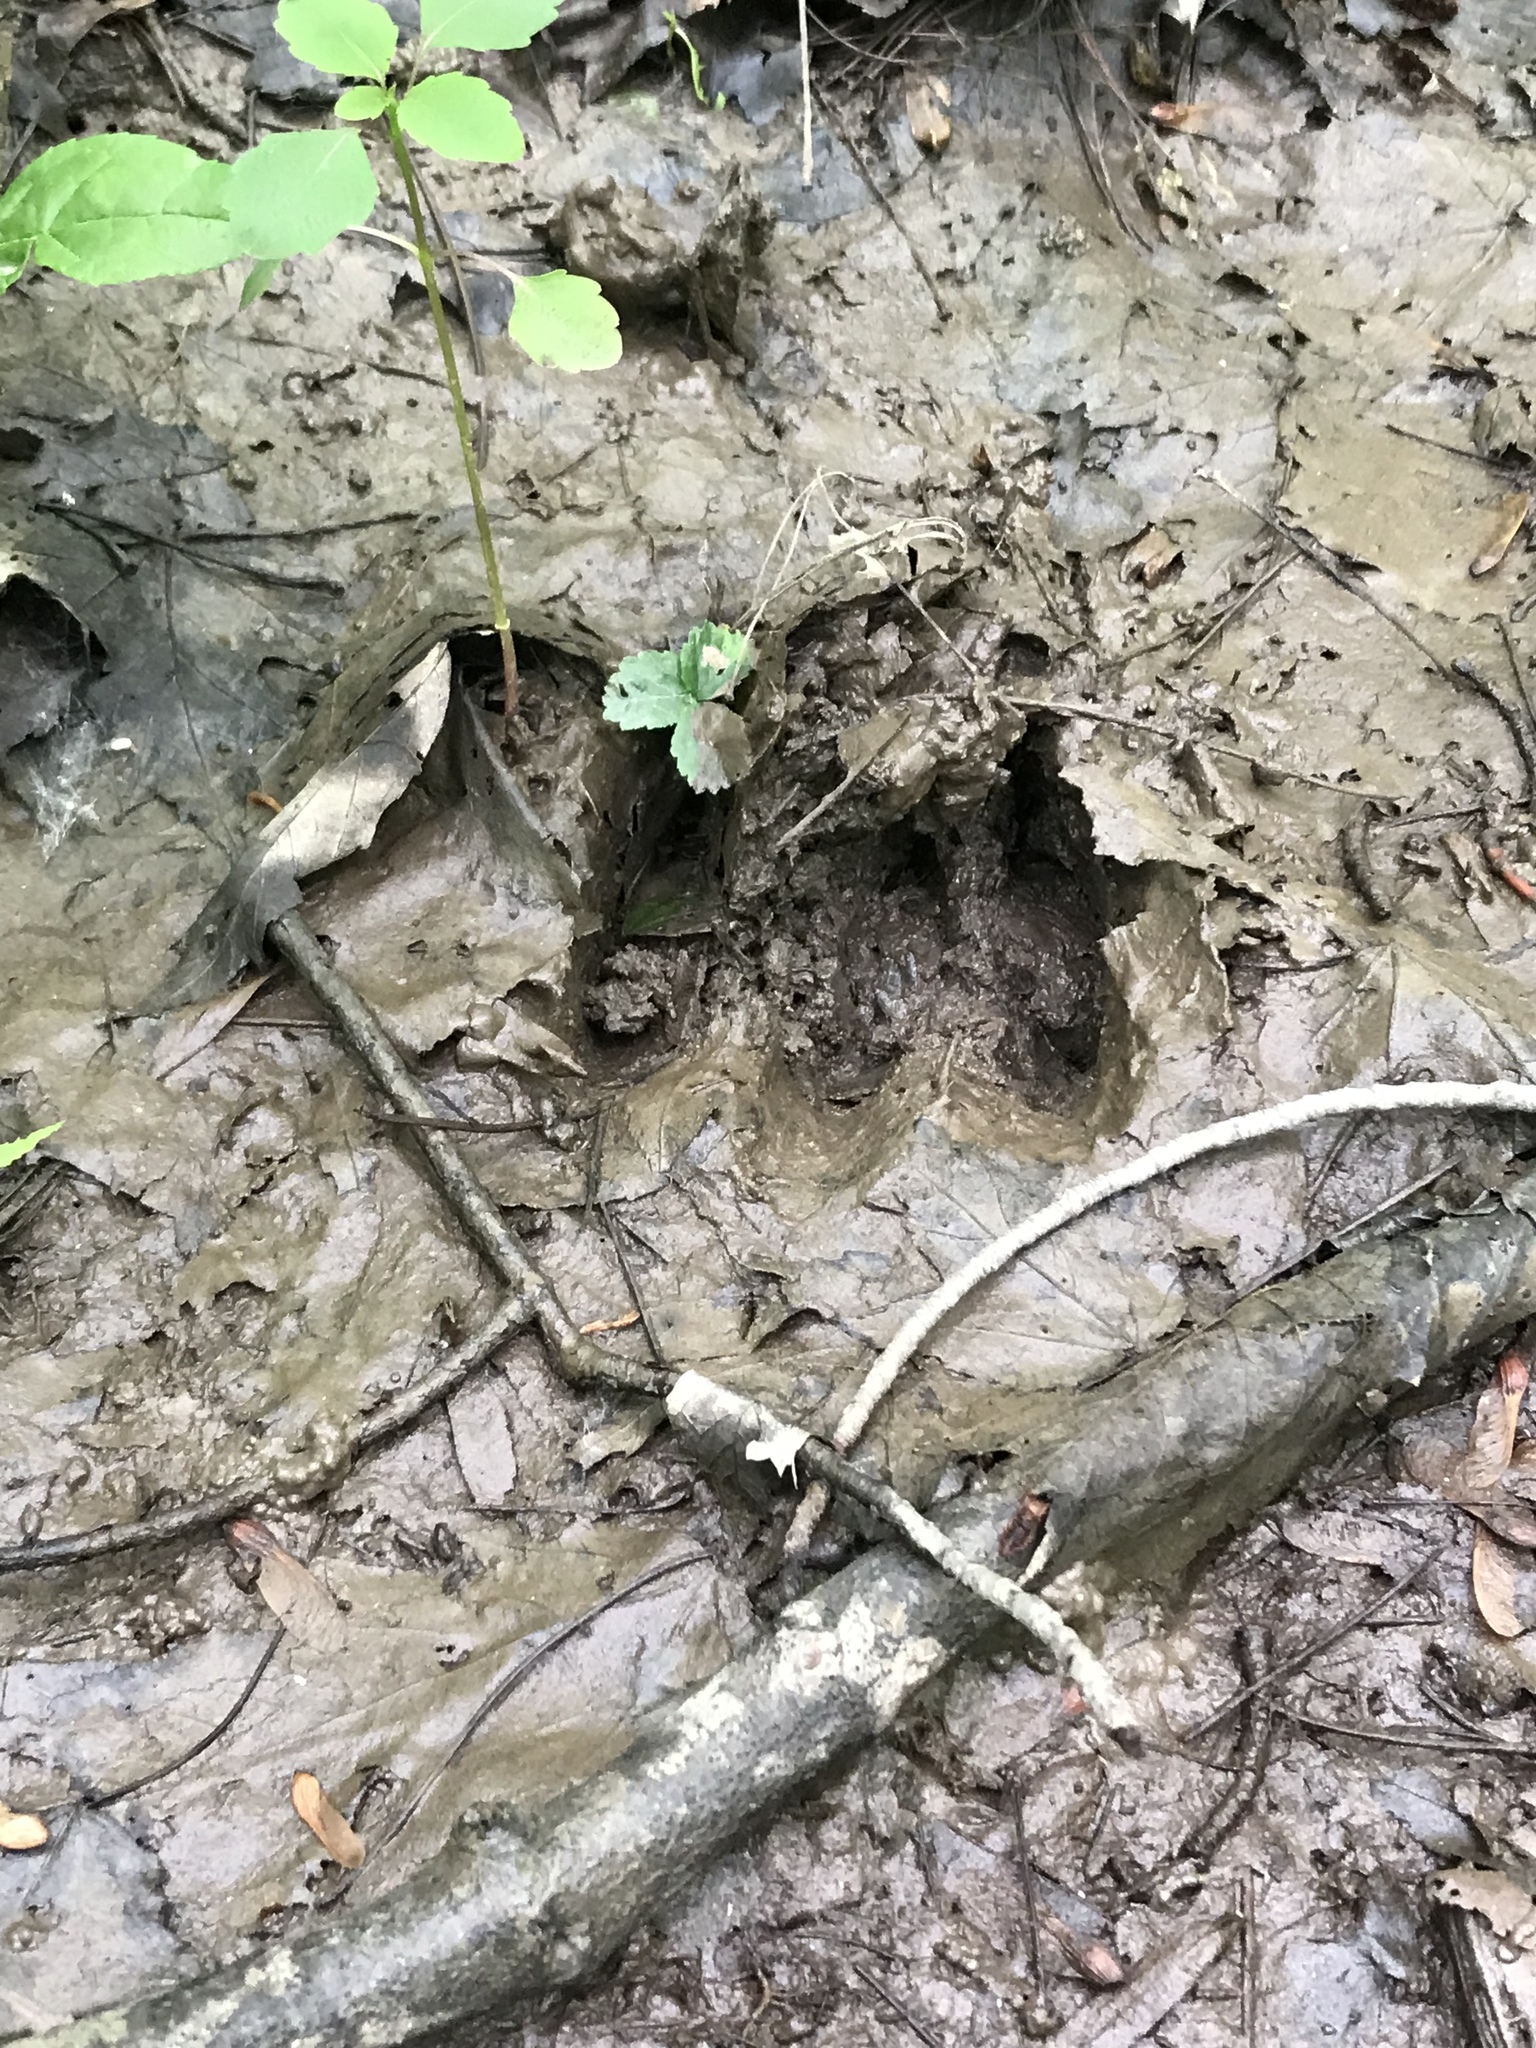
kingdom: Animalia
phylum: Chordata
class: Mammalia
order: Artiodactyla
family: Cervidae
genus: Odocoileus
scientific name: Odocoileus virginianus
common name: White-tailed deer
